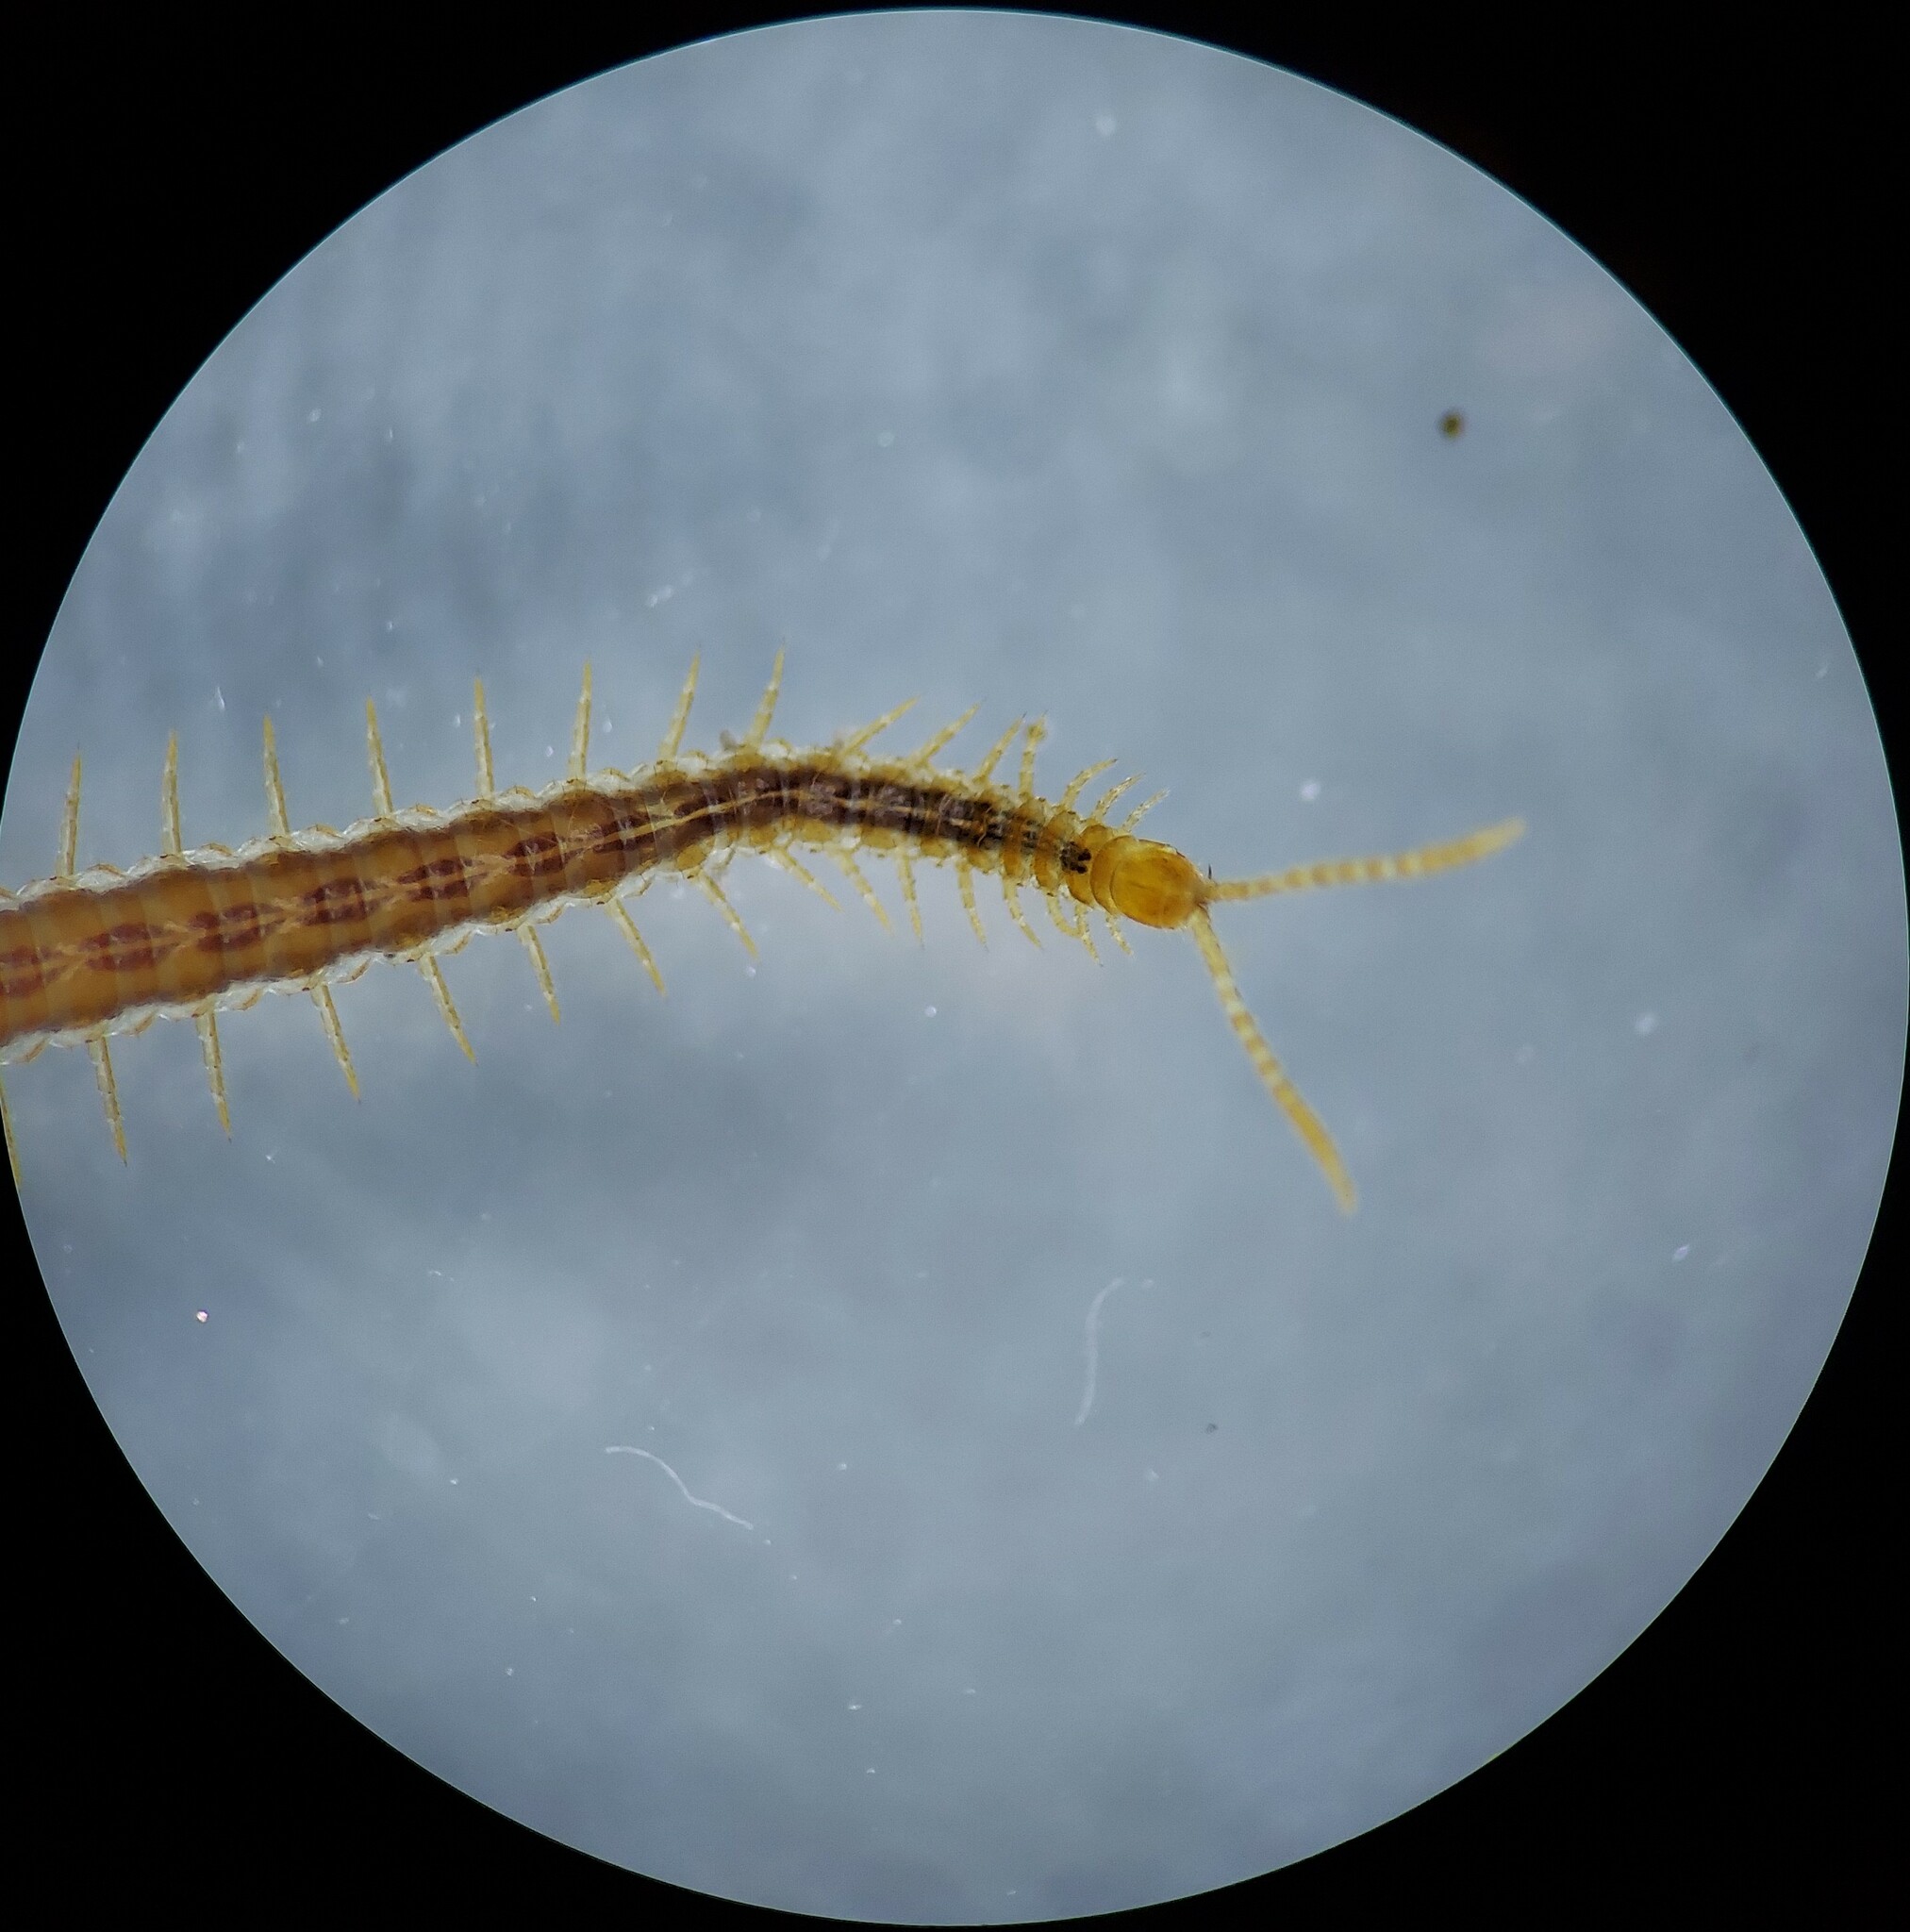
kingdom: Animalia
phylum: Arthropoda
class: Chilopoda
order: Geophilomorpha
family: Linotaeniidae
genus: Strigamia
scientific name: Strigamia branneri
